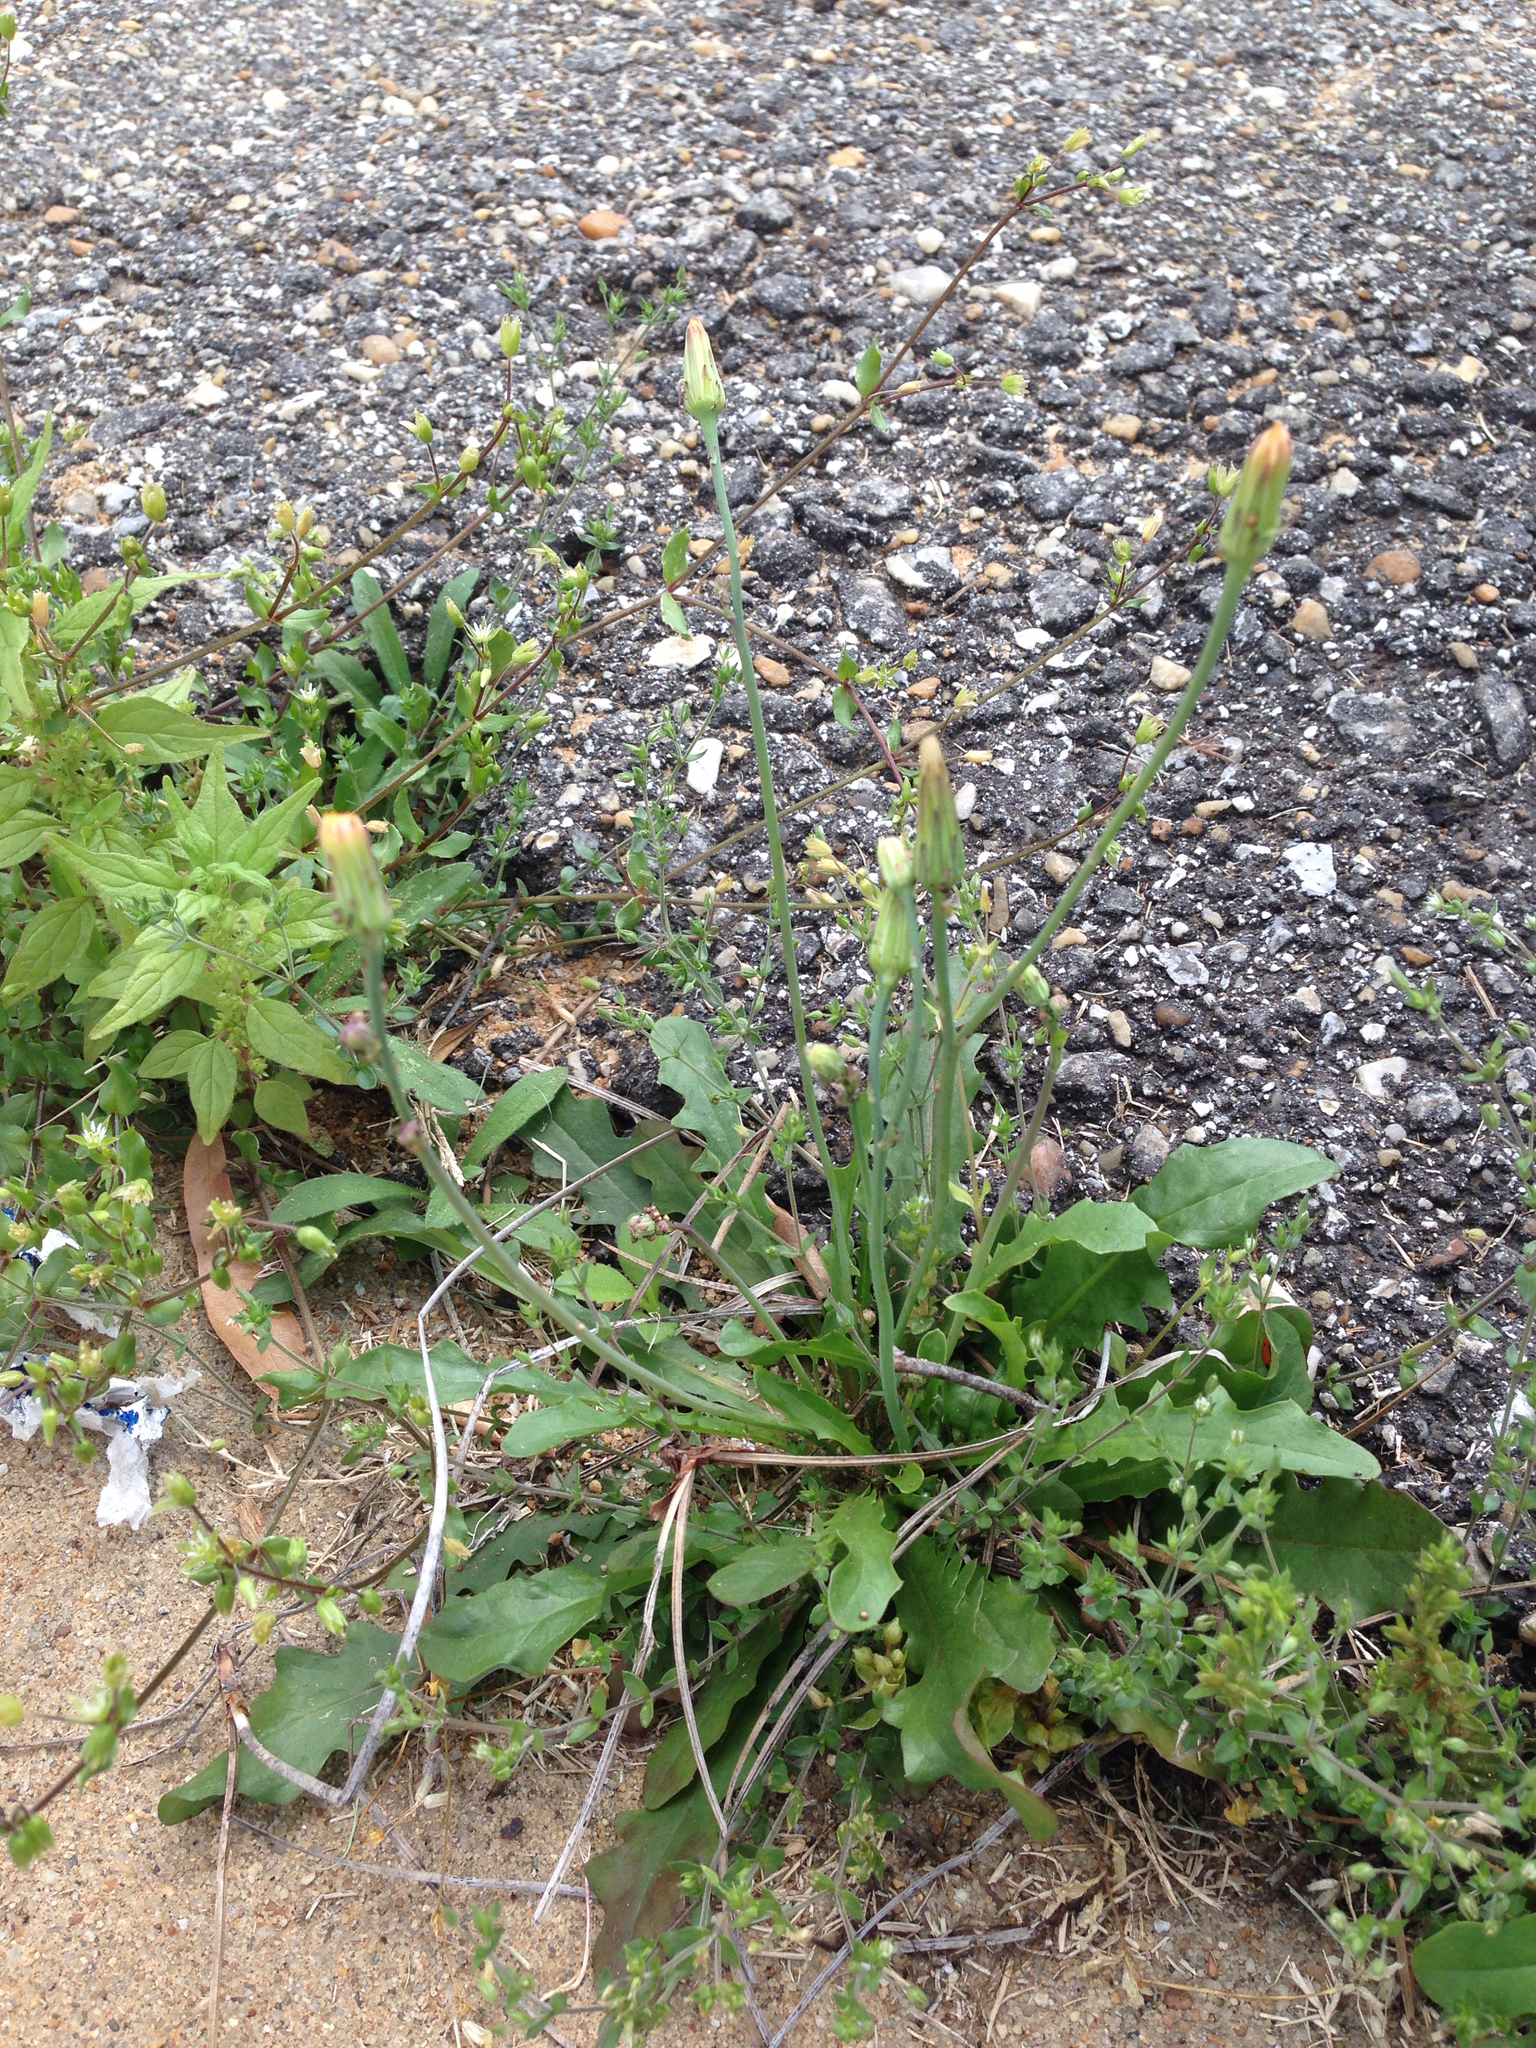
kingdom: Plantae
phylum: Tracheophyta
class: Magnoliopsida
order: Asterales
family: Asteraceae
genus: Hypochaeris
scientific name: Hypochaeris glabra
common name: Smooth catsear
